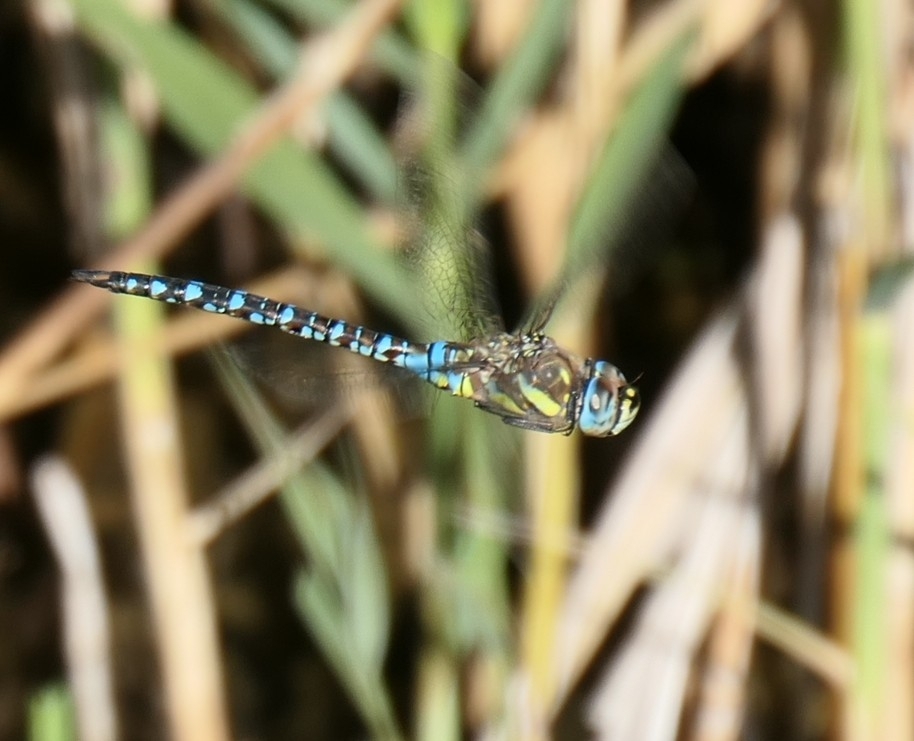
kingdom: Animalia
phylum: Arthropoda
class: Insecta
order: Odonata
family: Aeshnidae
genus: Aeshna
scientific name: Aeshna mixta
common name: Migrant hawker
